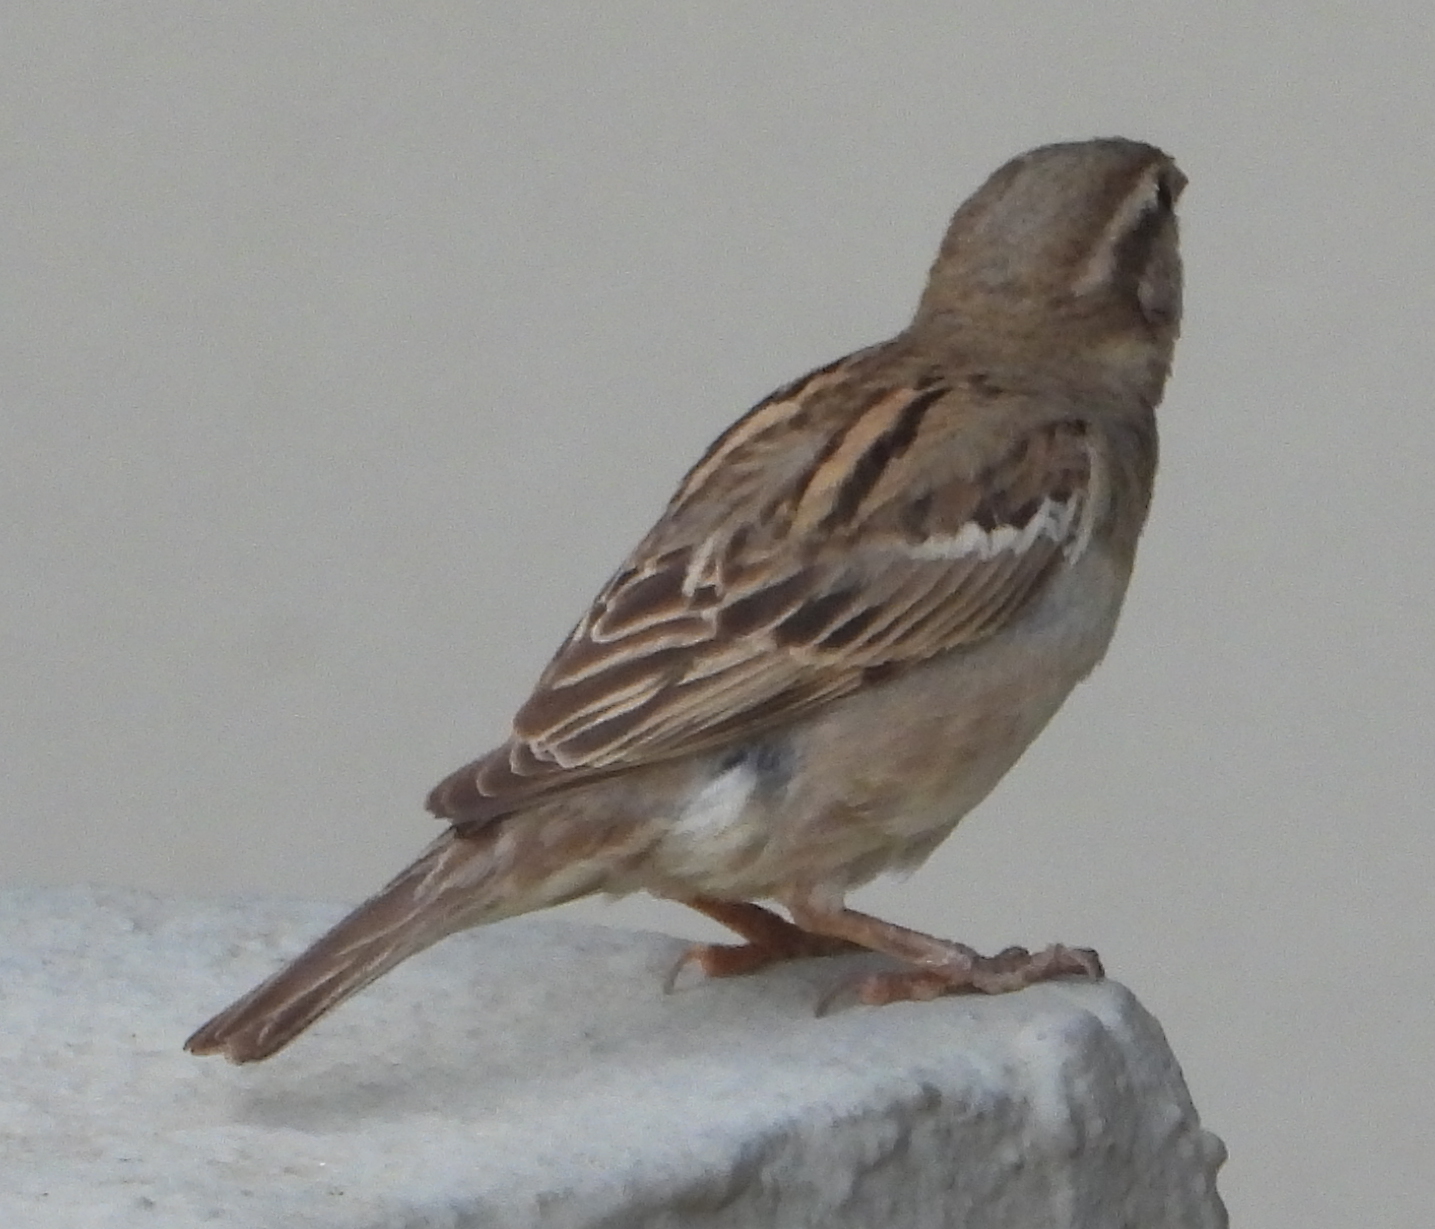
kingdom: Animalia
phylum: Chordata
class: Aves
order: Passeriformes
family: Passeridae
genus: Passer
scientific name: Passer domesticus
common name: House sparrow
